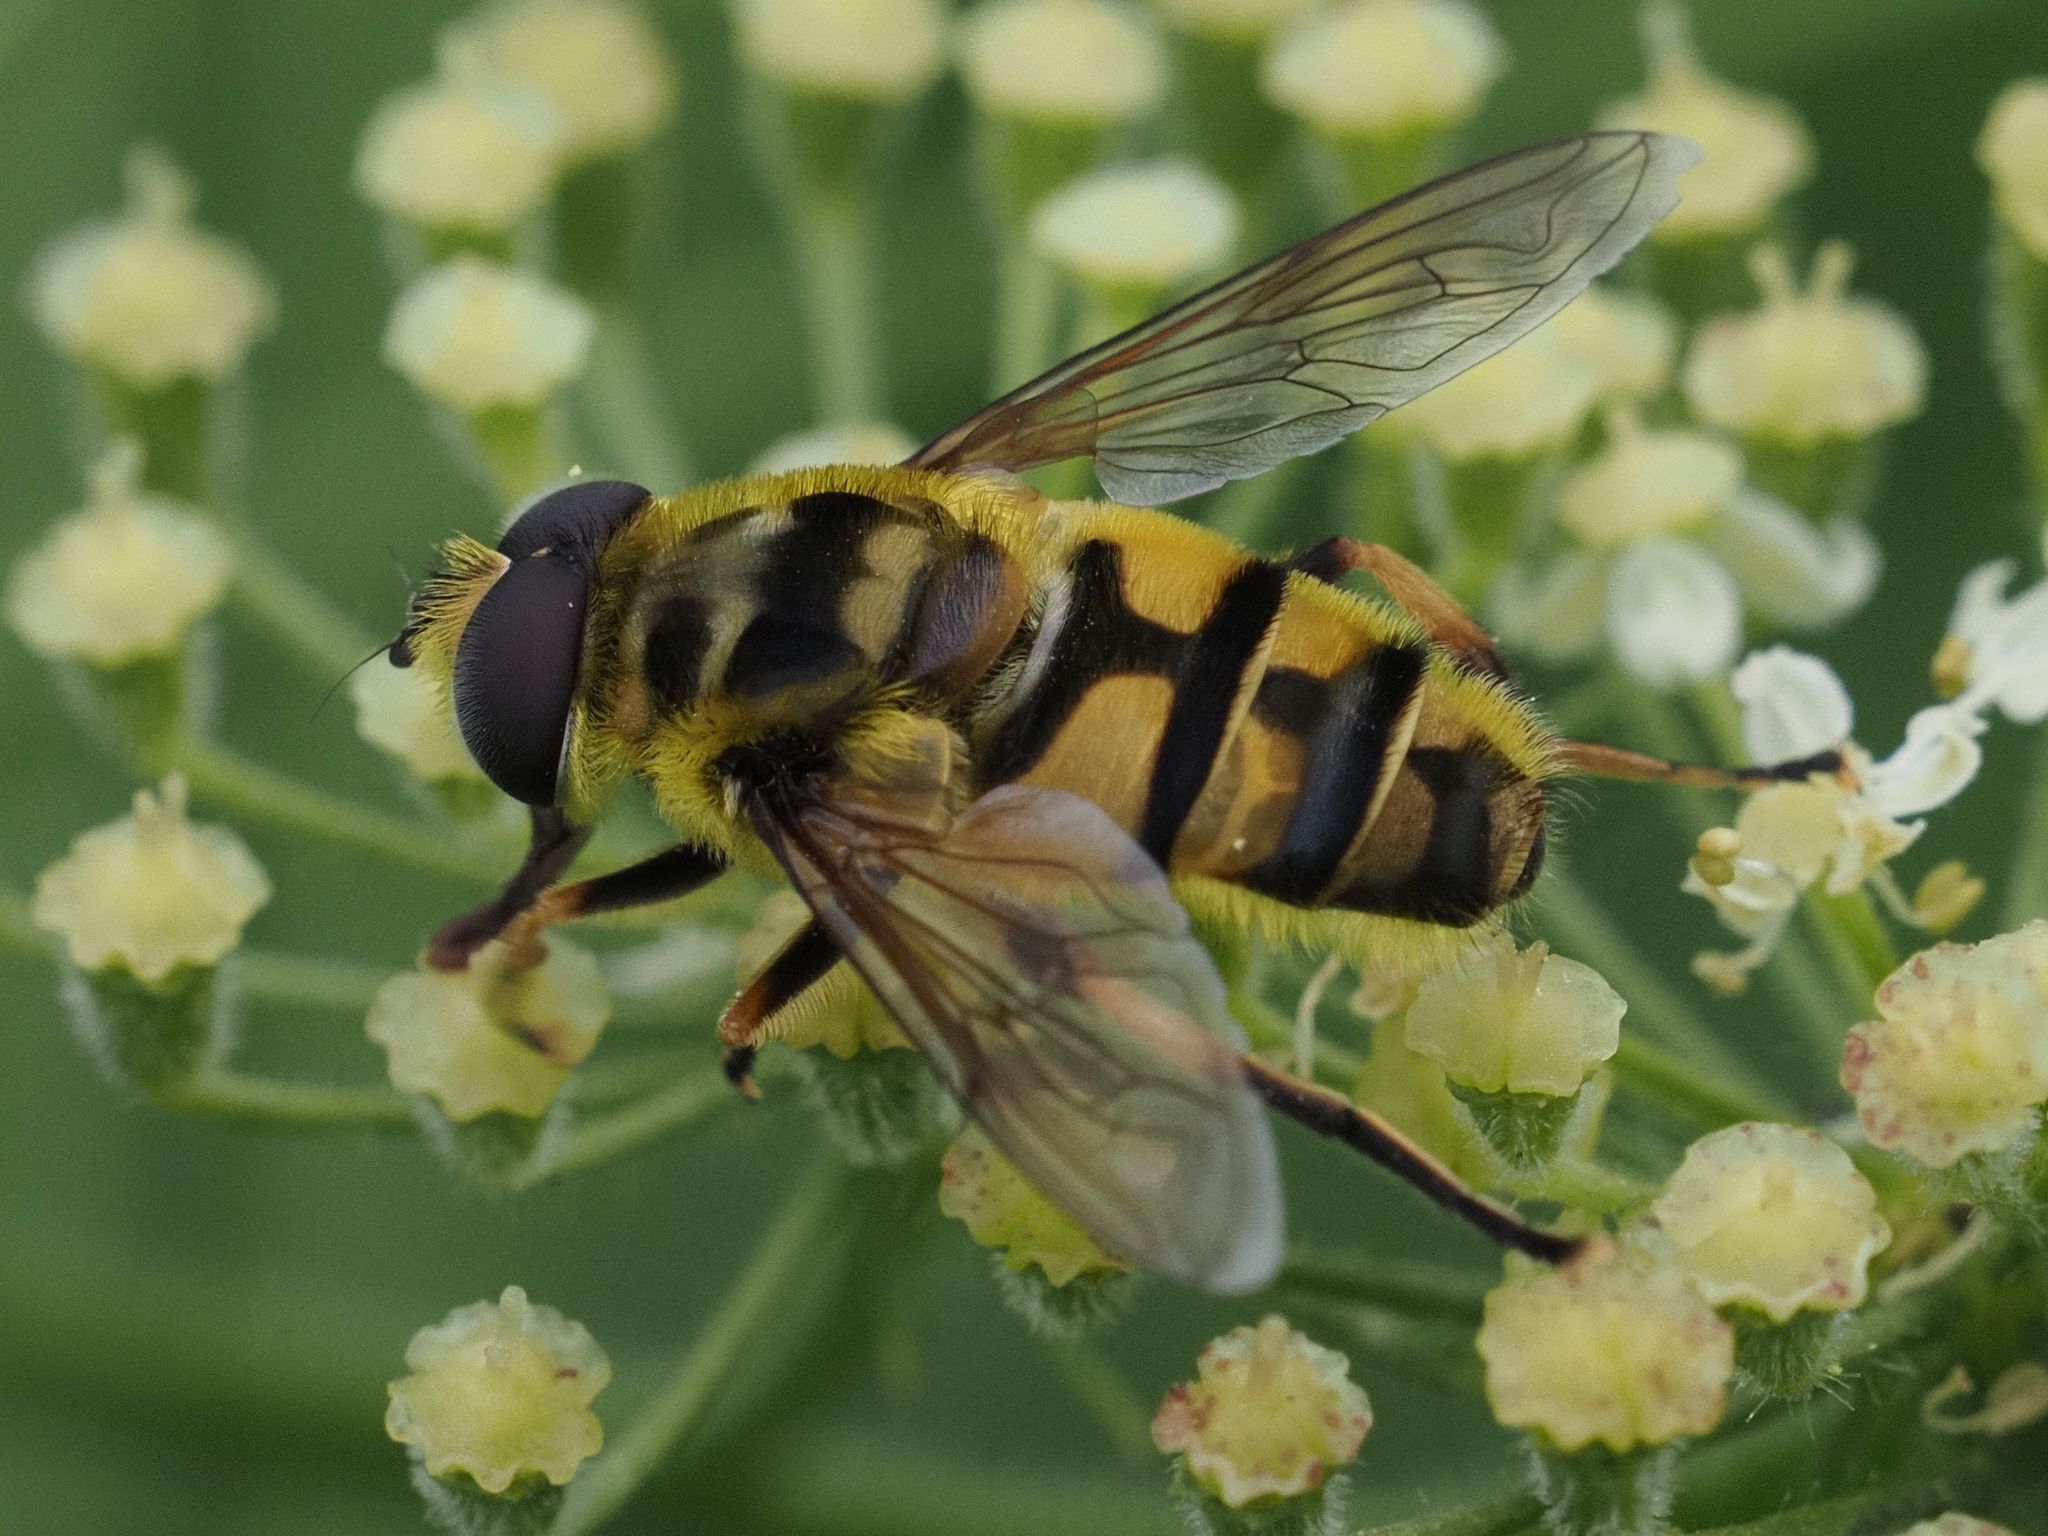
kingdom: Animalia
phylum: Arthropoda
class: Insecta
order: Diptera
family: Syrphidae
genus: Myathropa
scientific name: Myathropa florea
